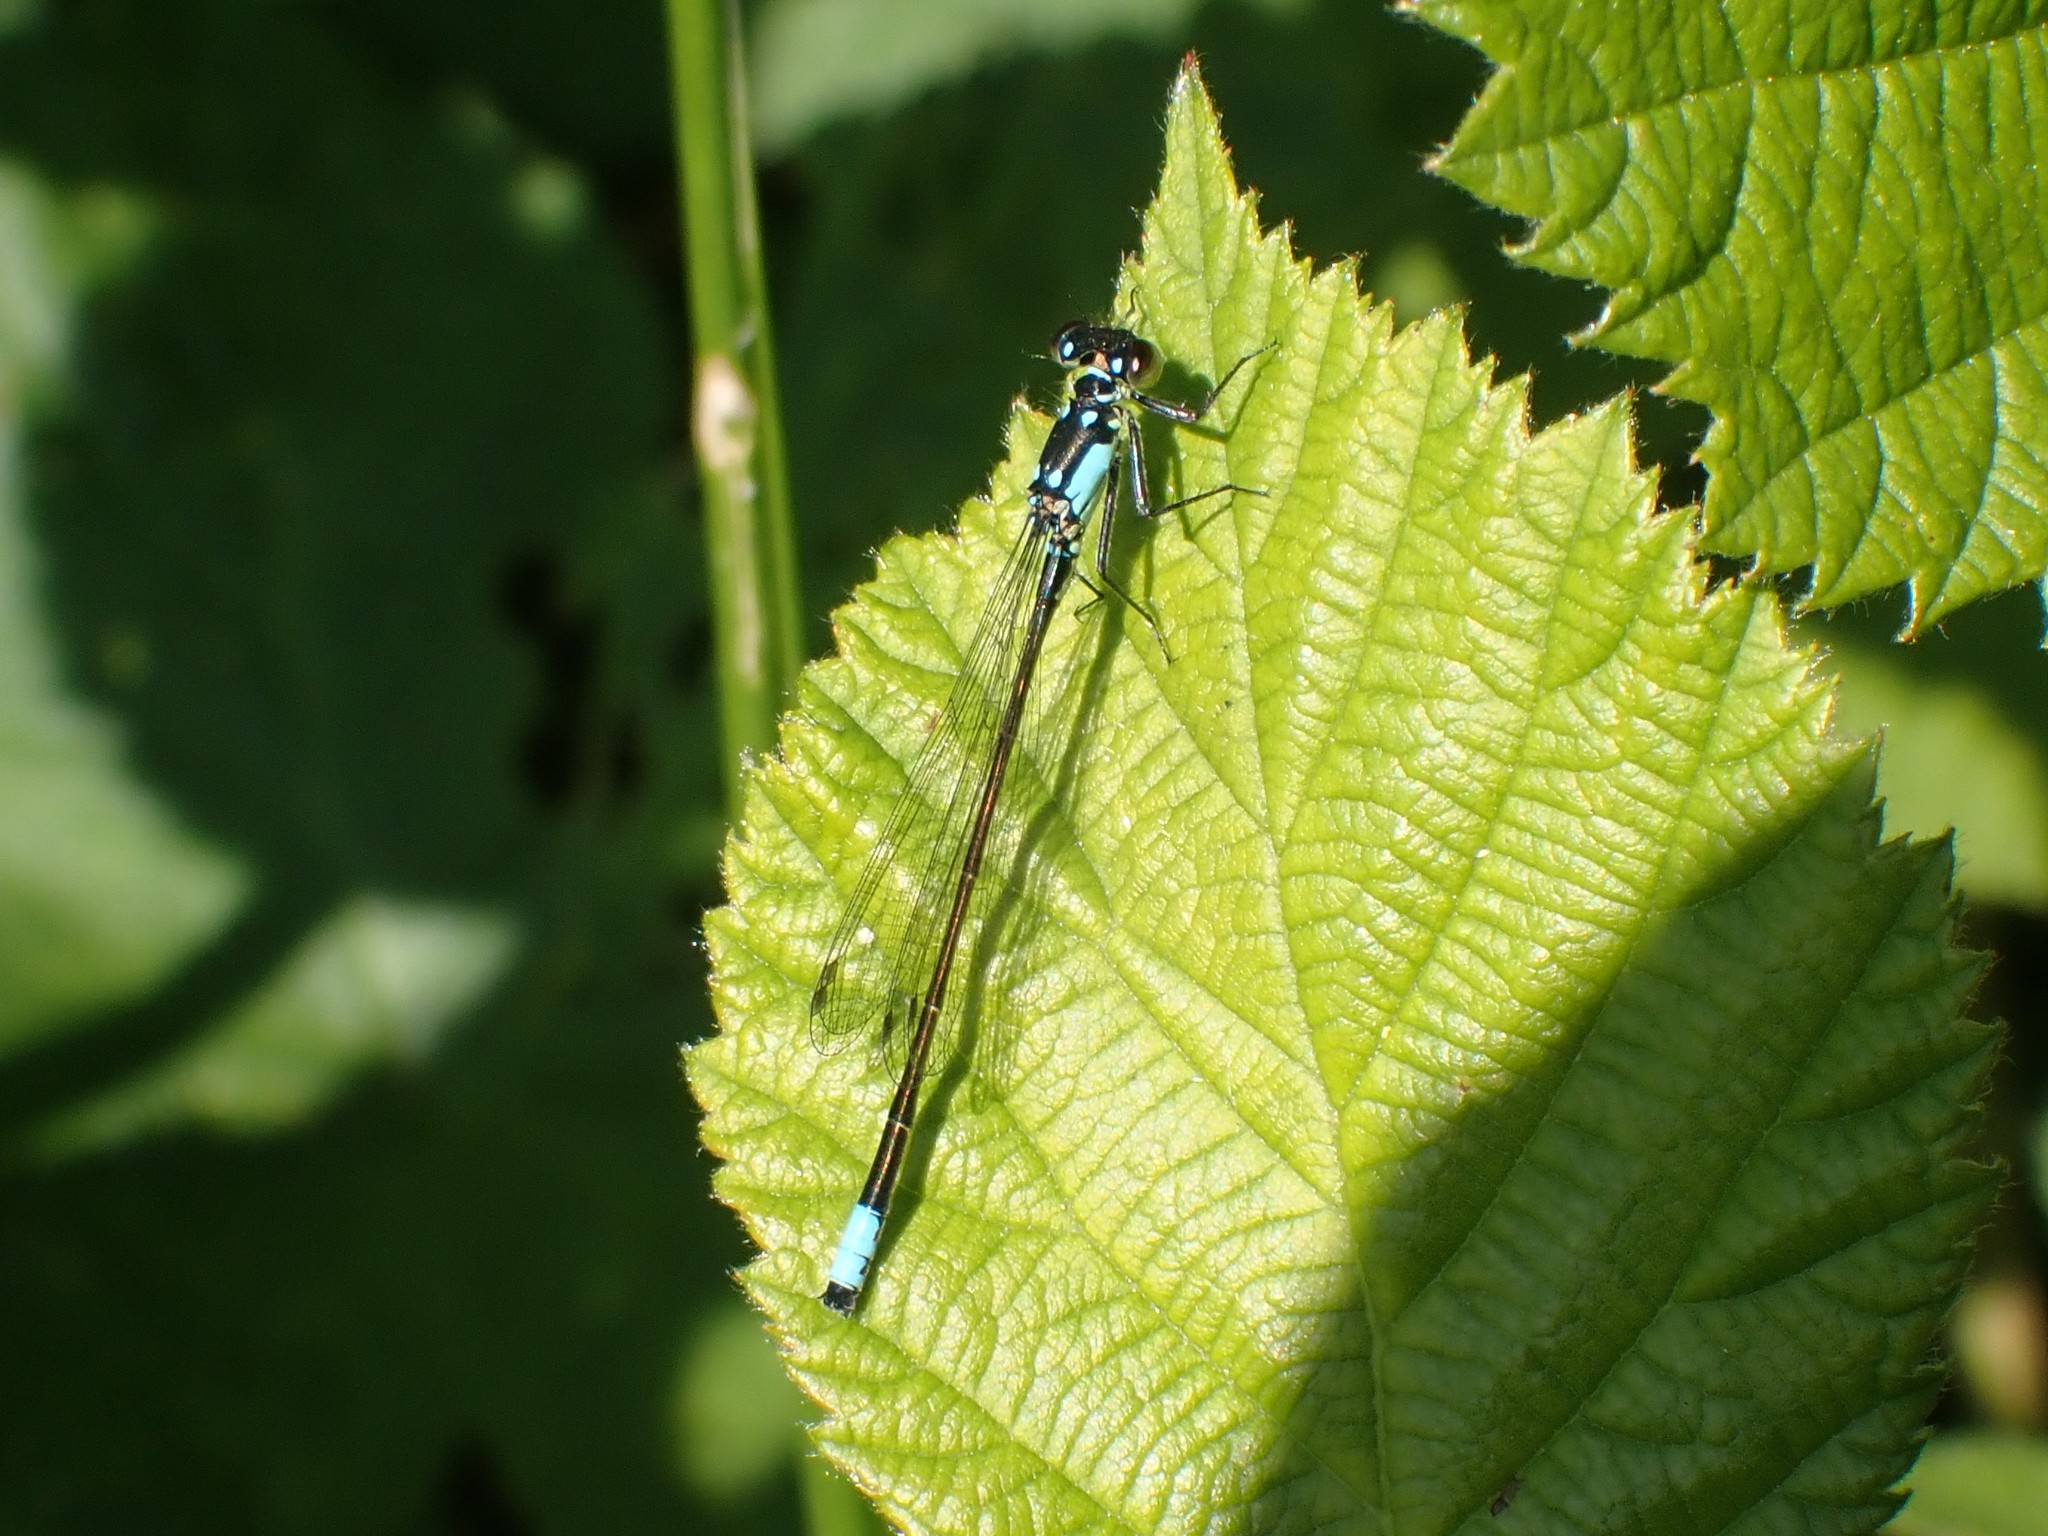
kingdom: Animalia
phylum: Arthropoda
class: Insecta
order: Odonata
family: Coenagrionidae
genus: Ischnura
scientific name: Ischnura cervula
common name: Pacific forktail
